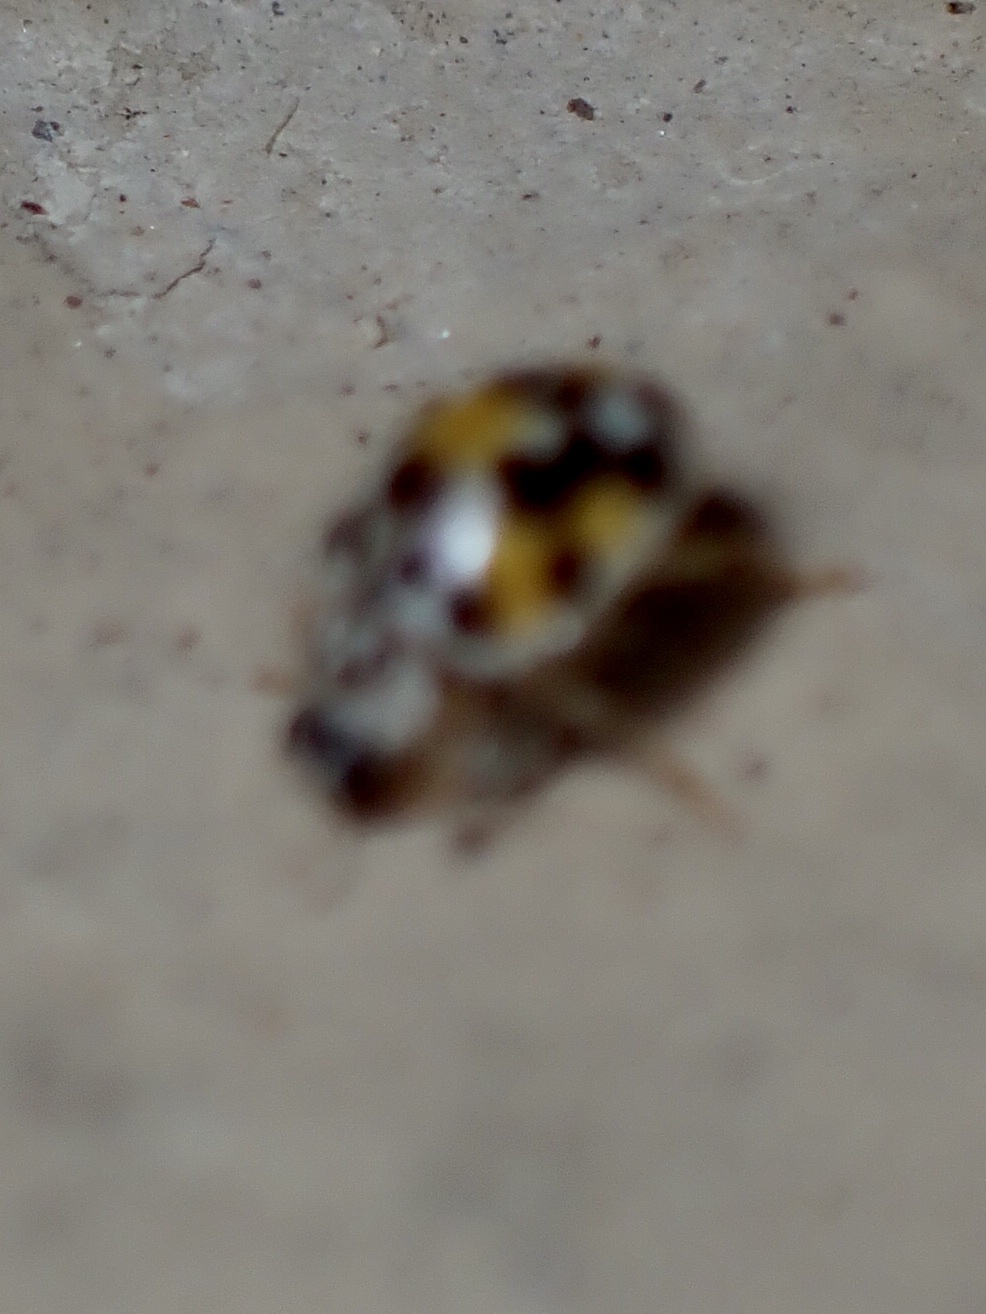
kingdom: Animalia
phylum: Arthropoda
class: Insecta
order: Coleoptera
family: Coccinellidae
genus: Psyllobora
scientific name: Psyllobora vigintimaculata
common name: Ladybird beetle
